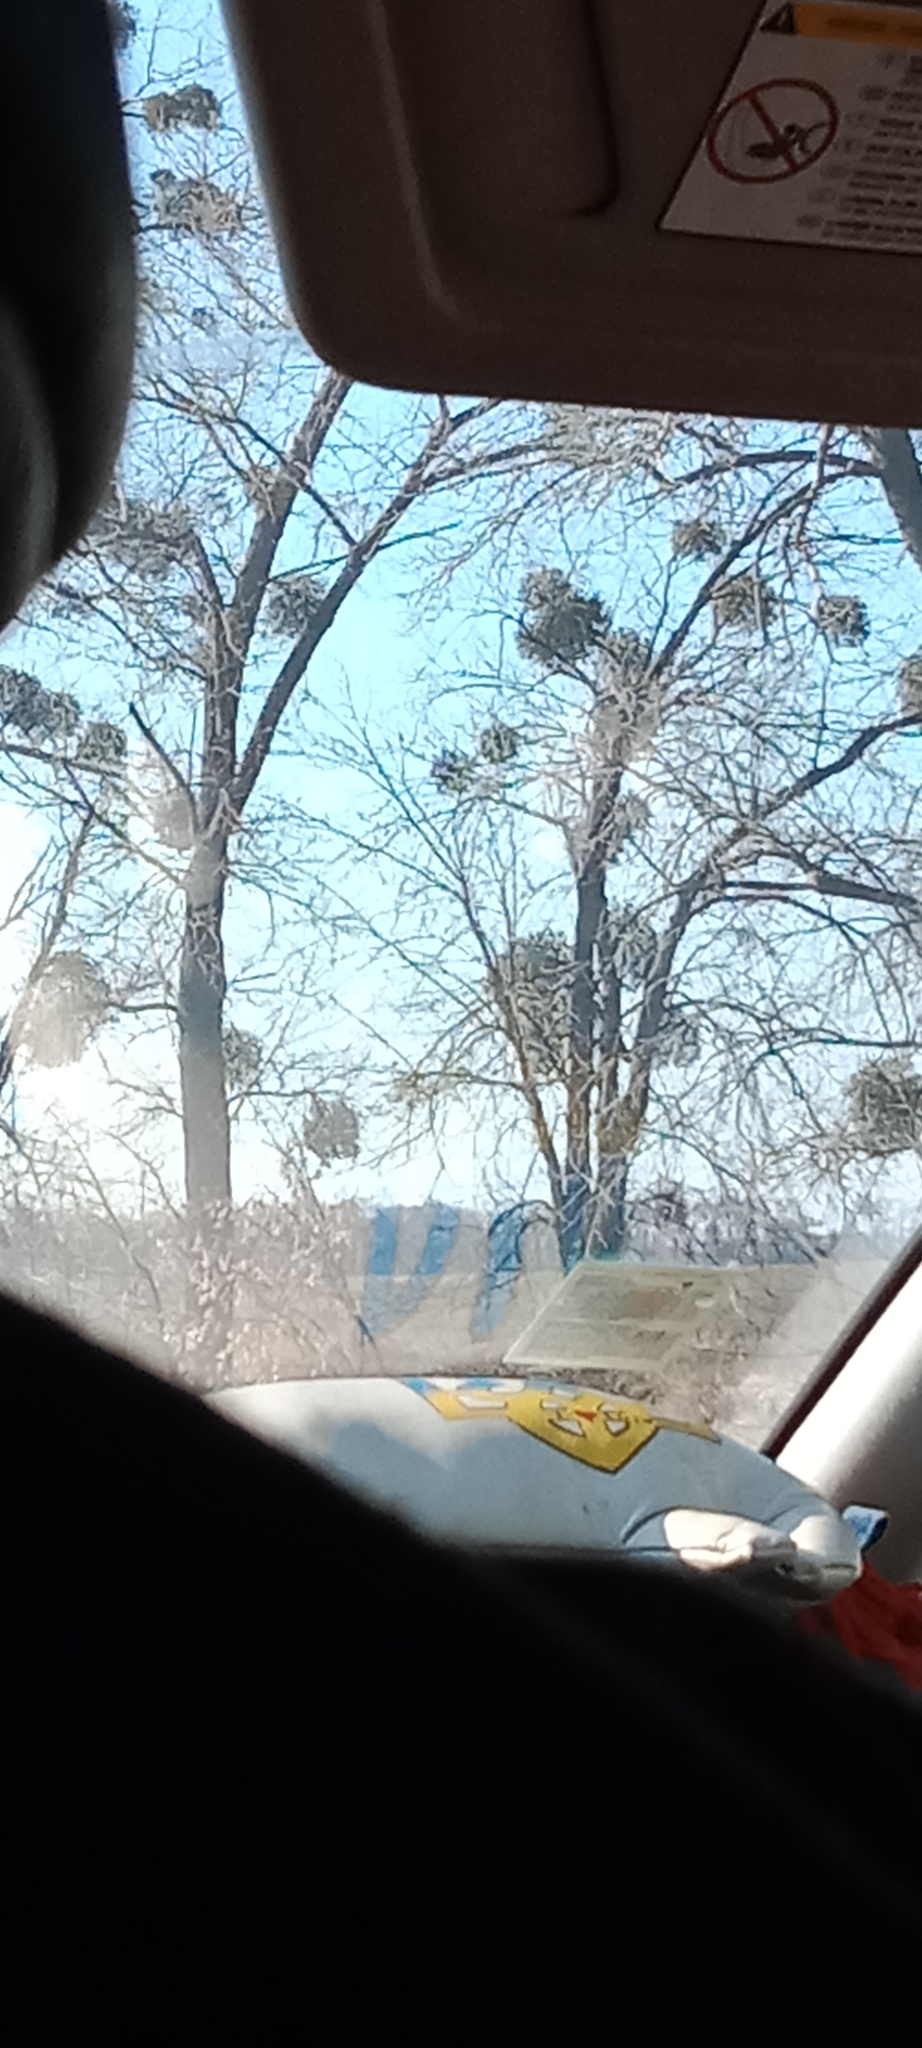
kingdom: Plantae
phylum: Tracheophyta
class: Magnoliopsida
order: Santalales
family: Viscaceae
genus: Viscum
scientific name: Viscum album
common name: Mistletoe
